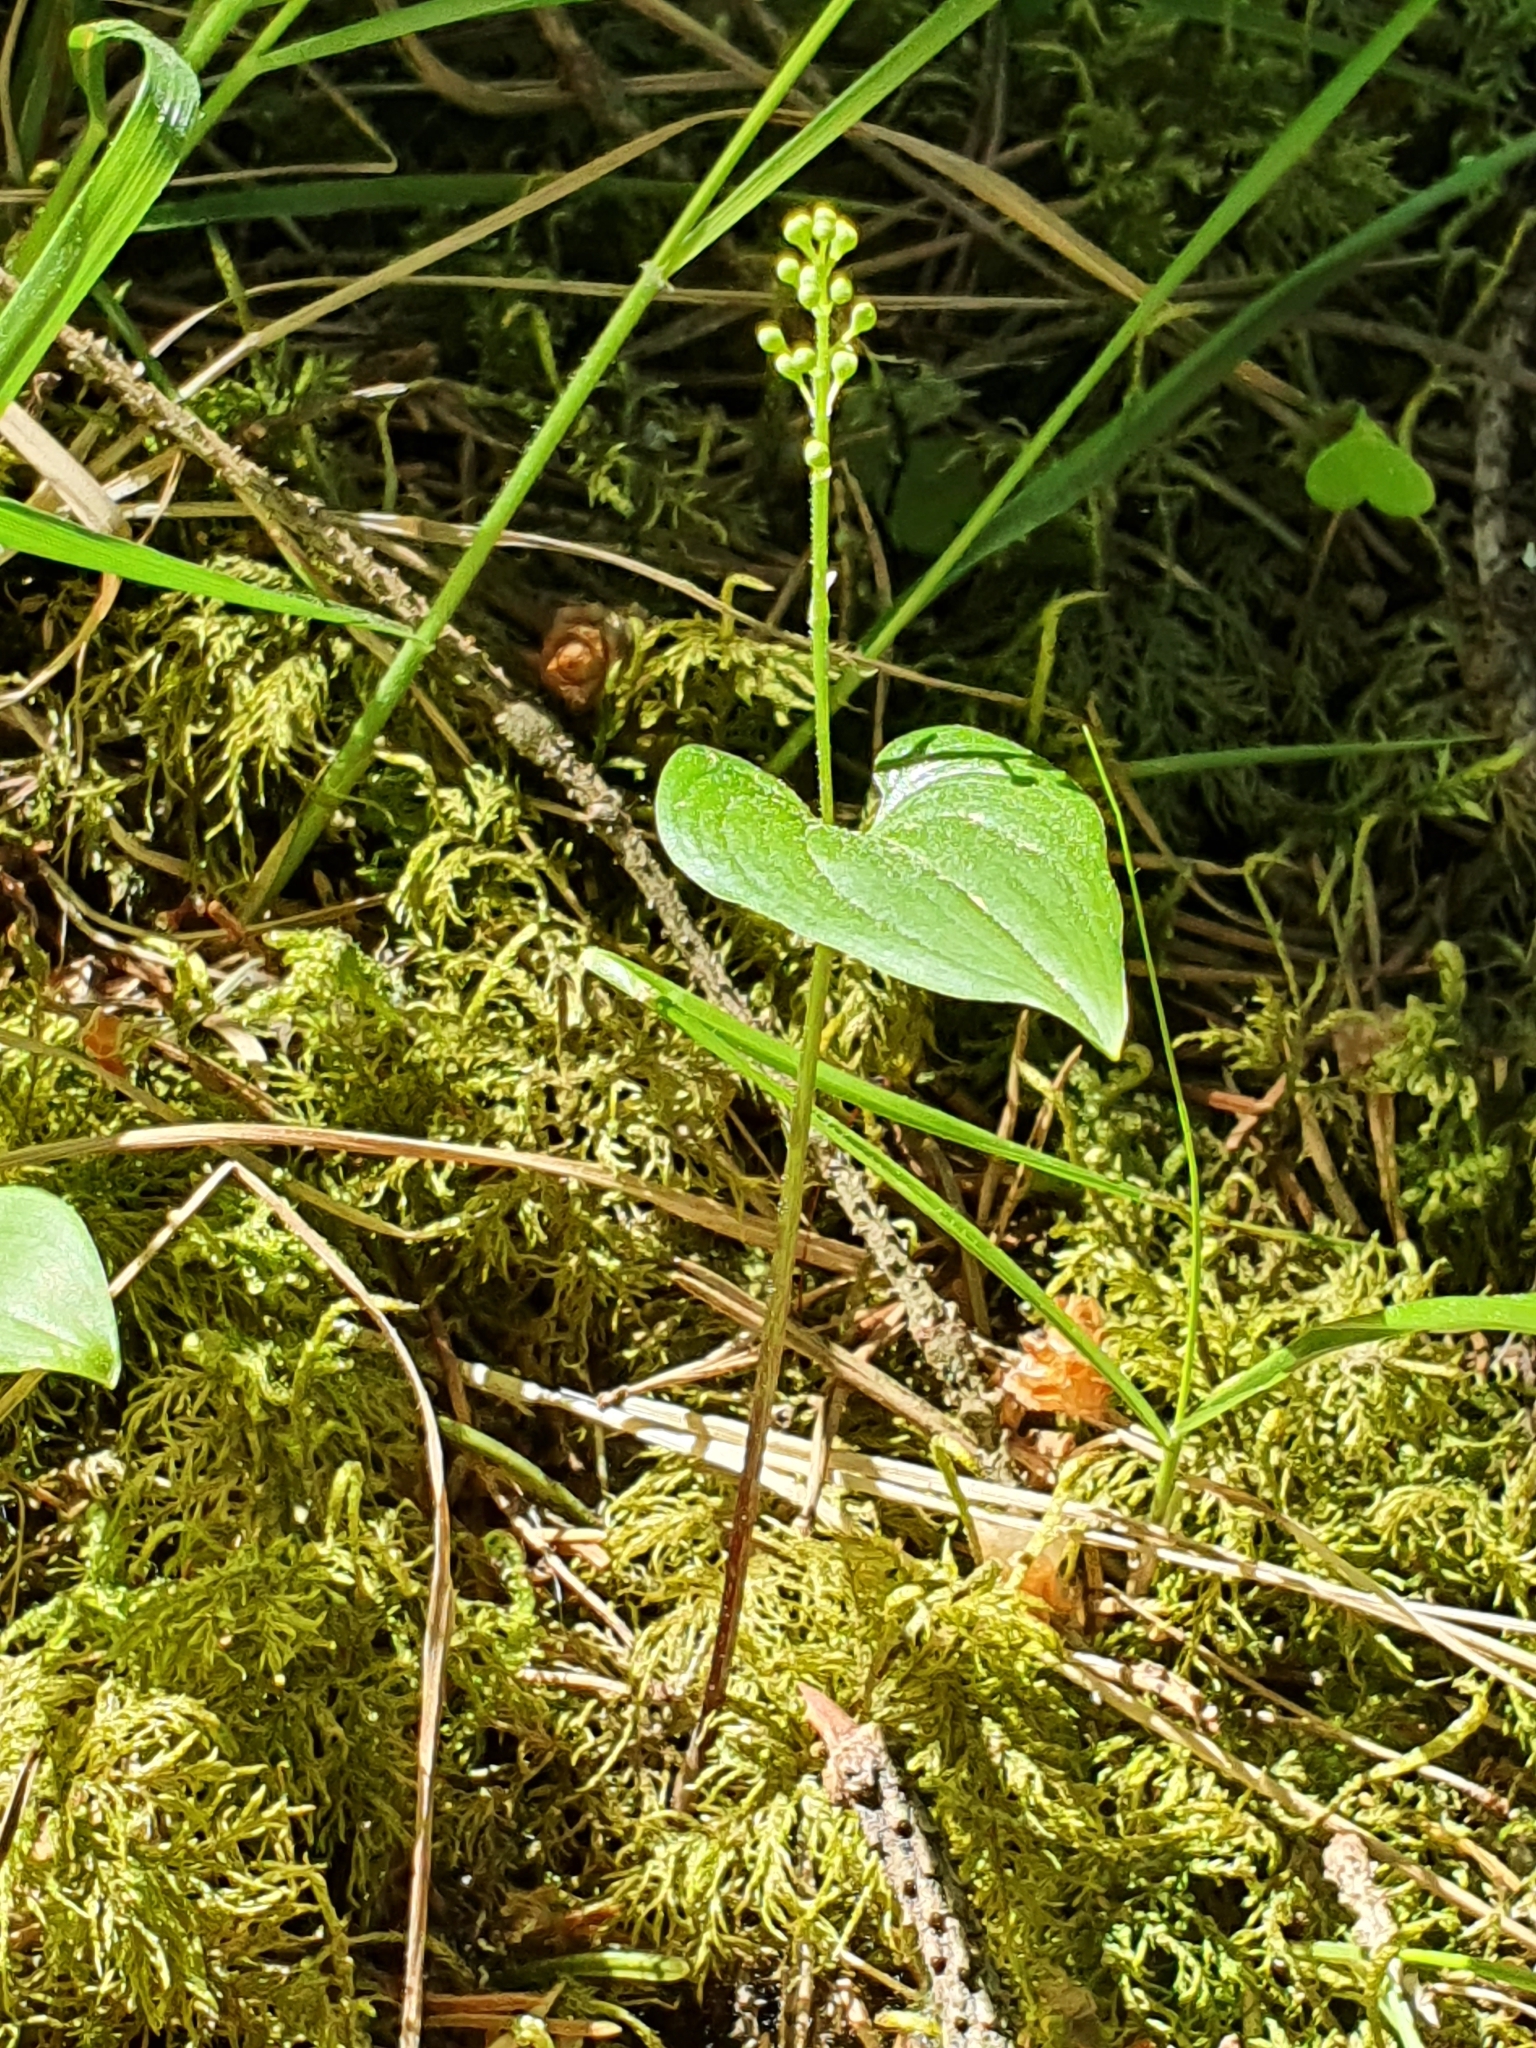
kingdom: Plantae
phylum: Tracheophyta
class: Liliopsida
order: Asparagales
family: Asparagaceae
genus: Maianthemum
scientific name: Maianthemum bifolium
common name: May lily
